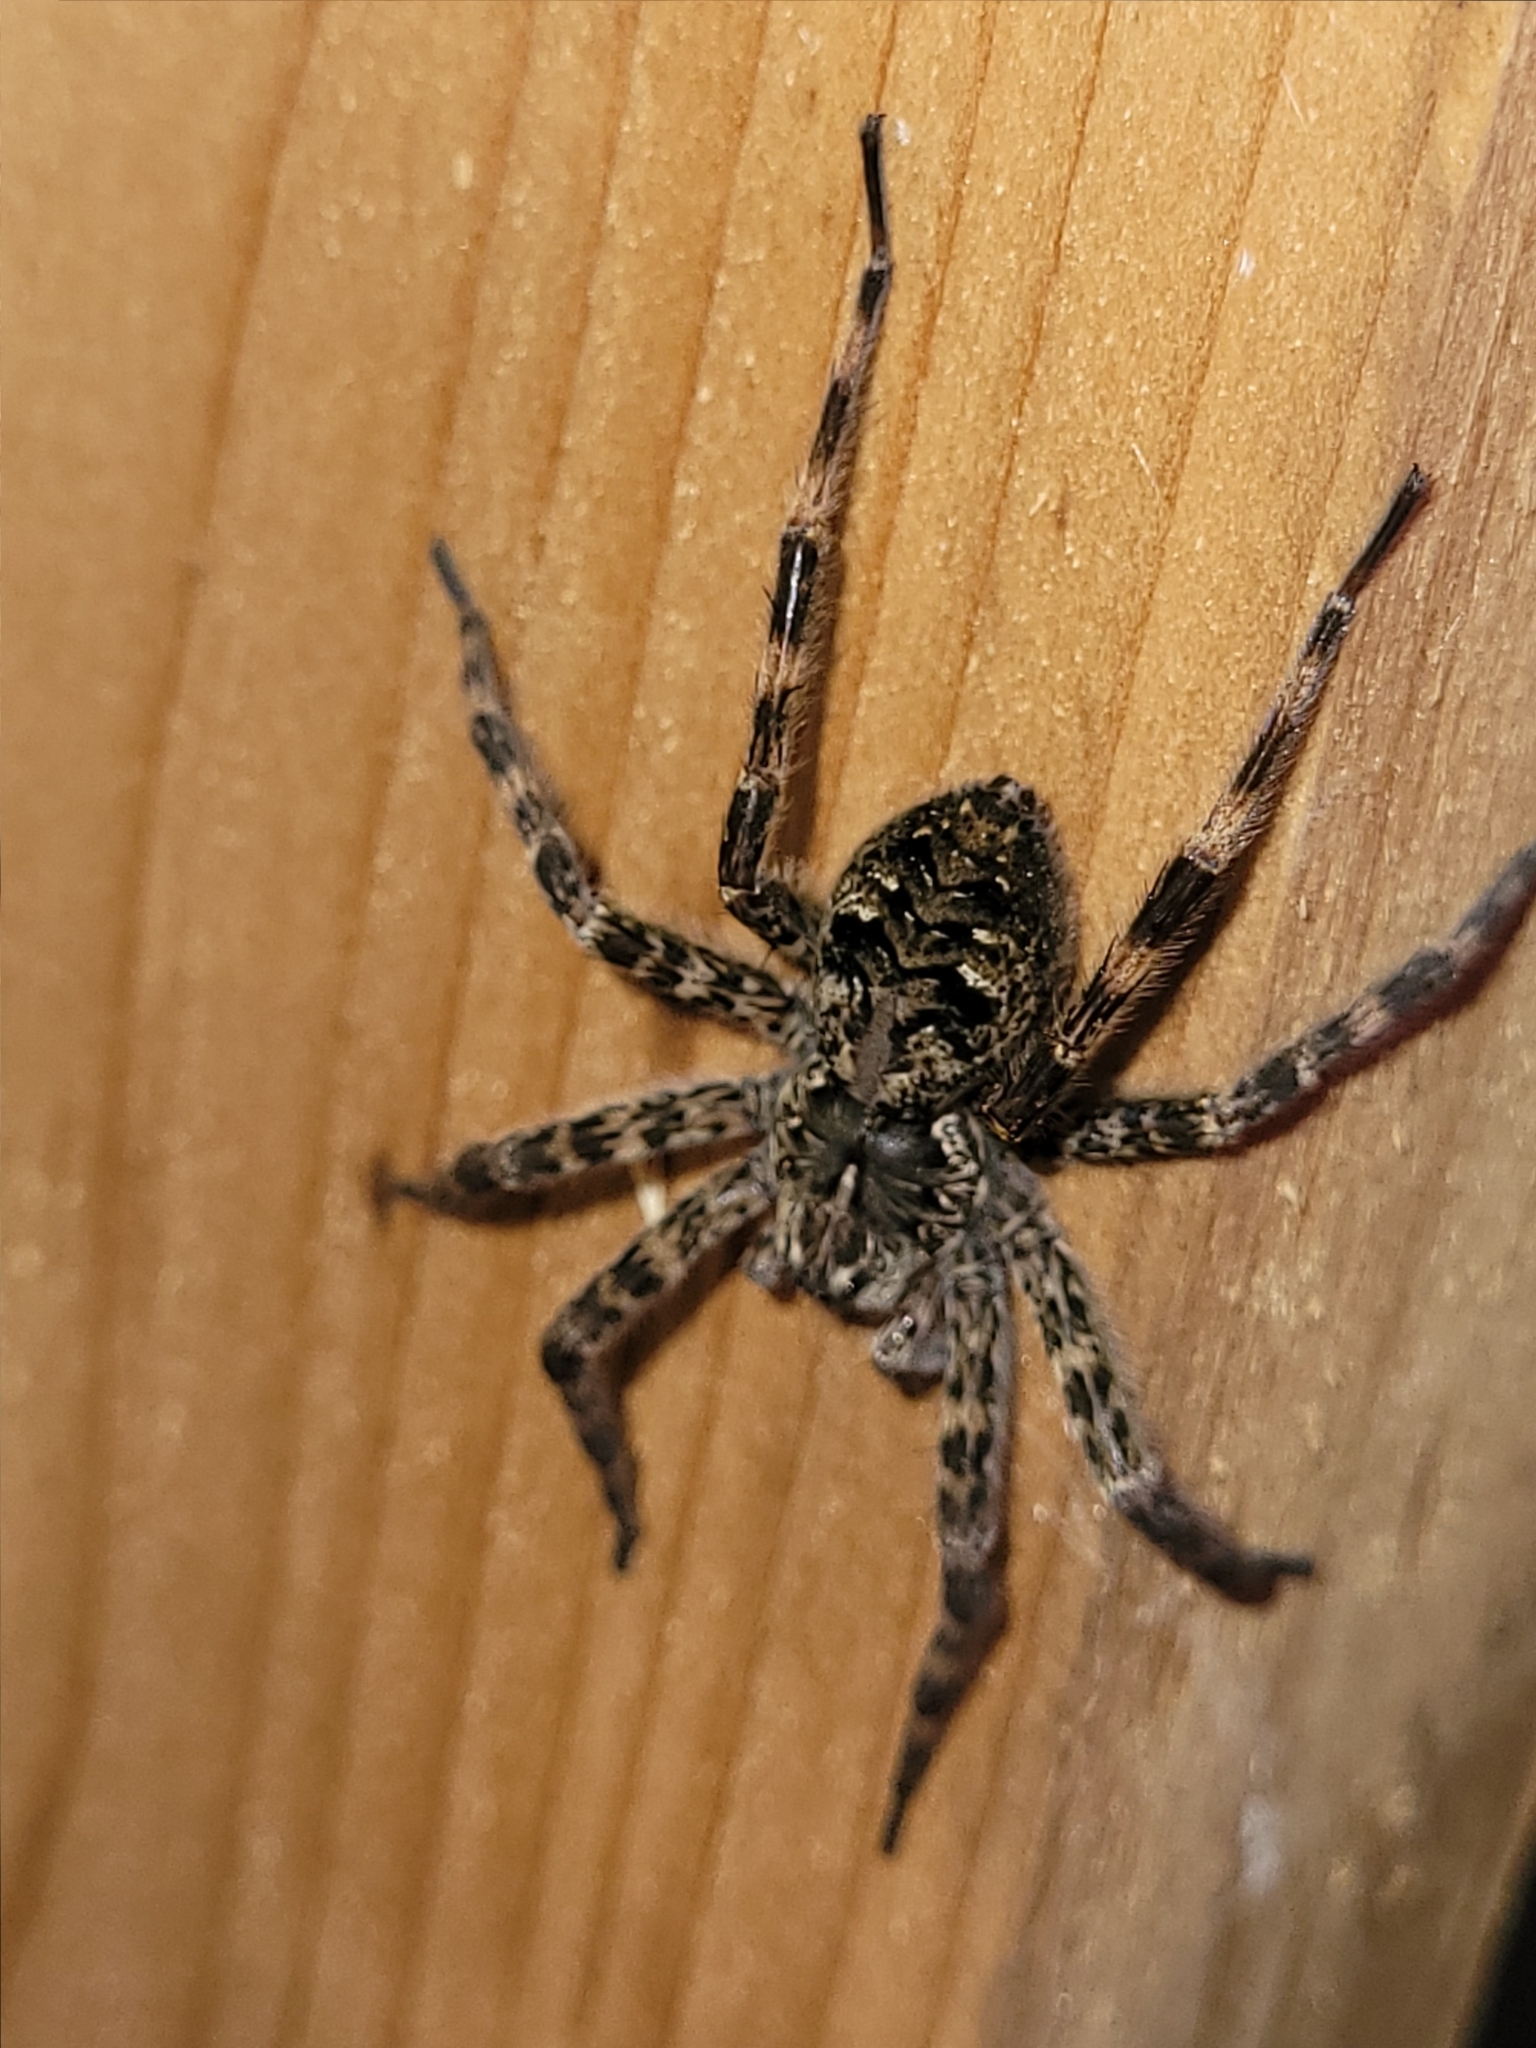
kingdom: Animalia
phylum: Arthropoda
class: Arachnida
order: Araneae
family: Pisauridae
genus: Dolomedes
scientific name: Dolomedes tenebrosus
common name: Dark fishing spider
